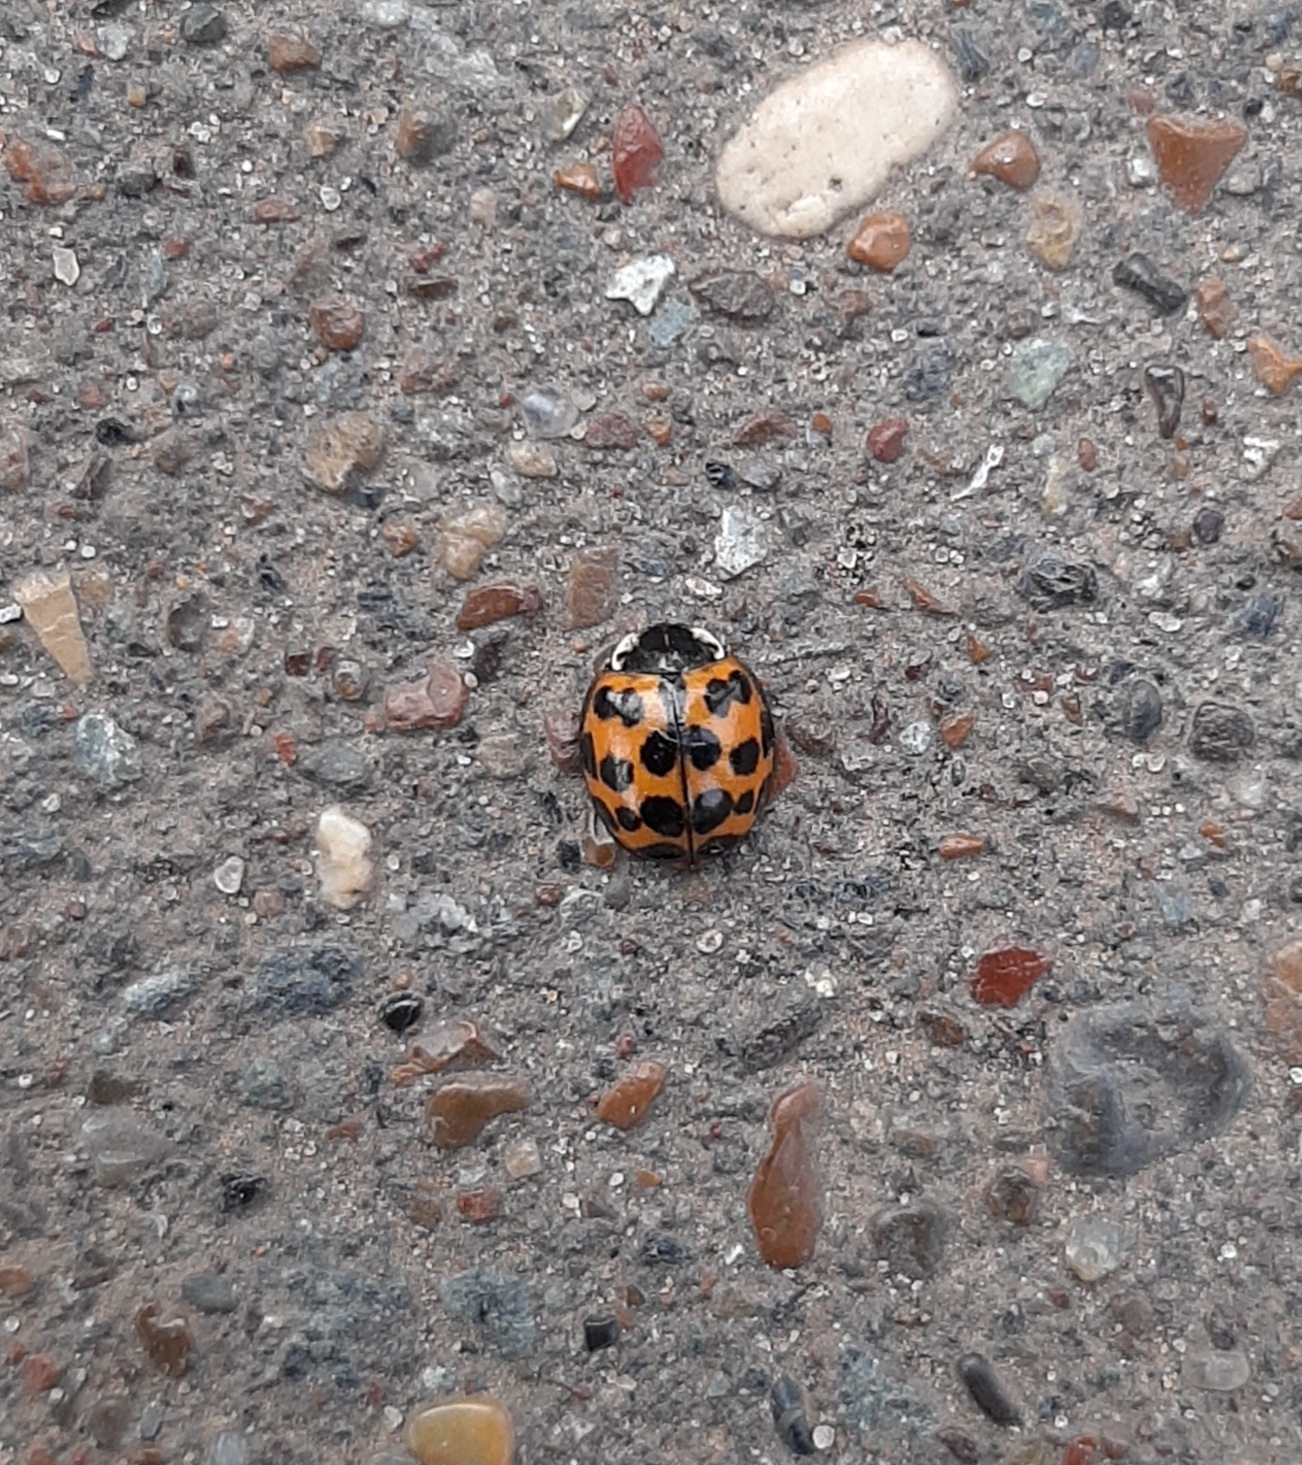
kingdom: Animalia
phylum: Arthropoda
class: Insecta
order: Coleoptera
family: Coccinellidae
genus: Harmonia
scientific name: Harmonia axyridis
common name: Harlequin ladybird
